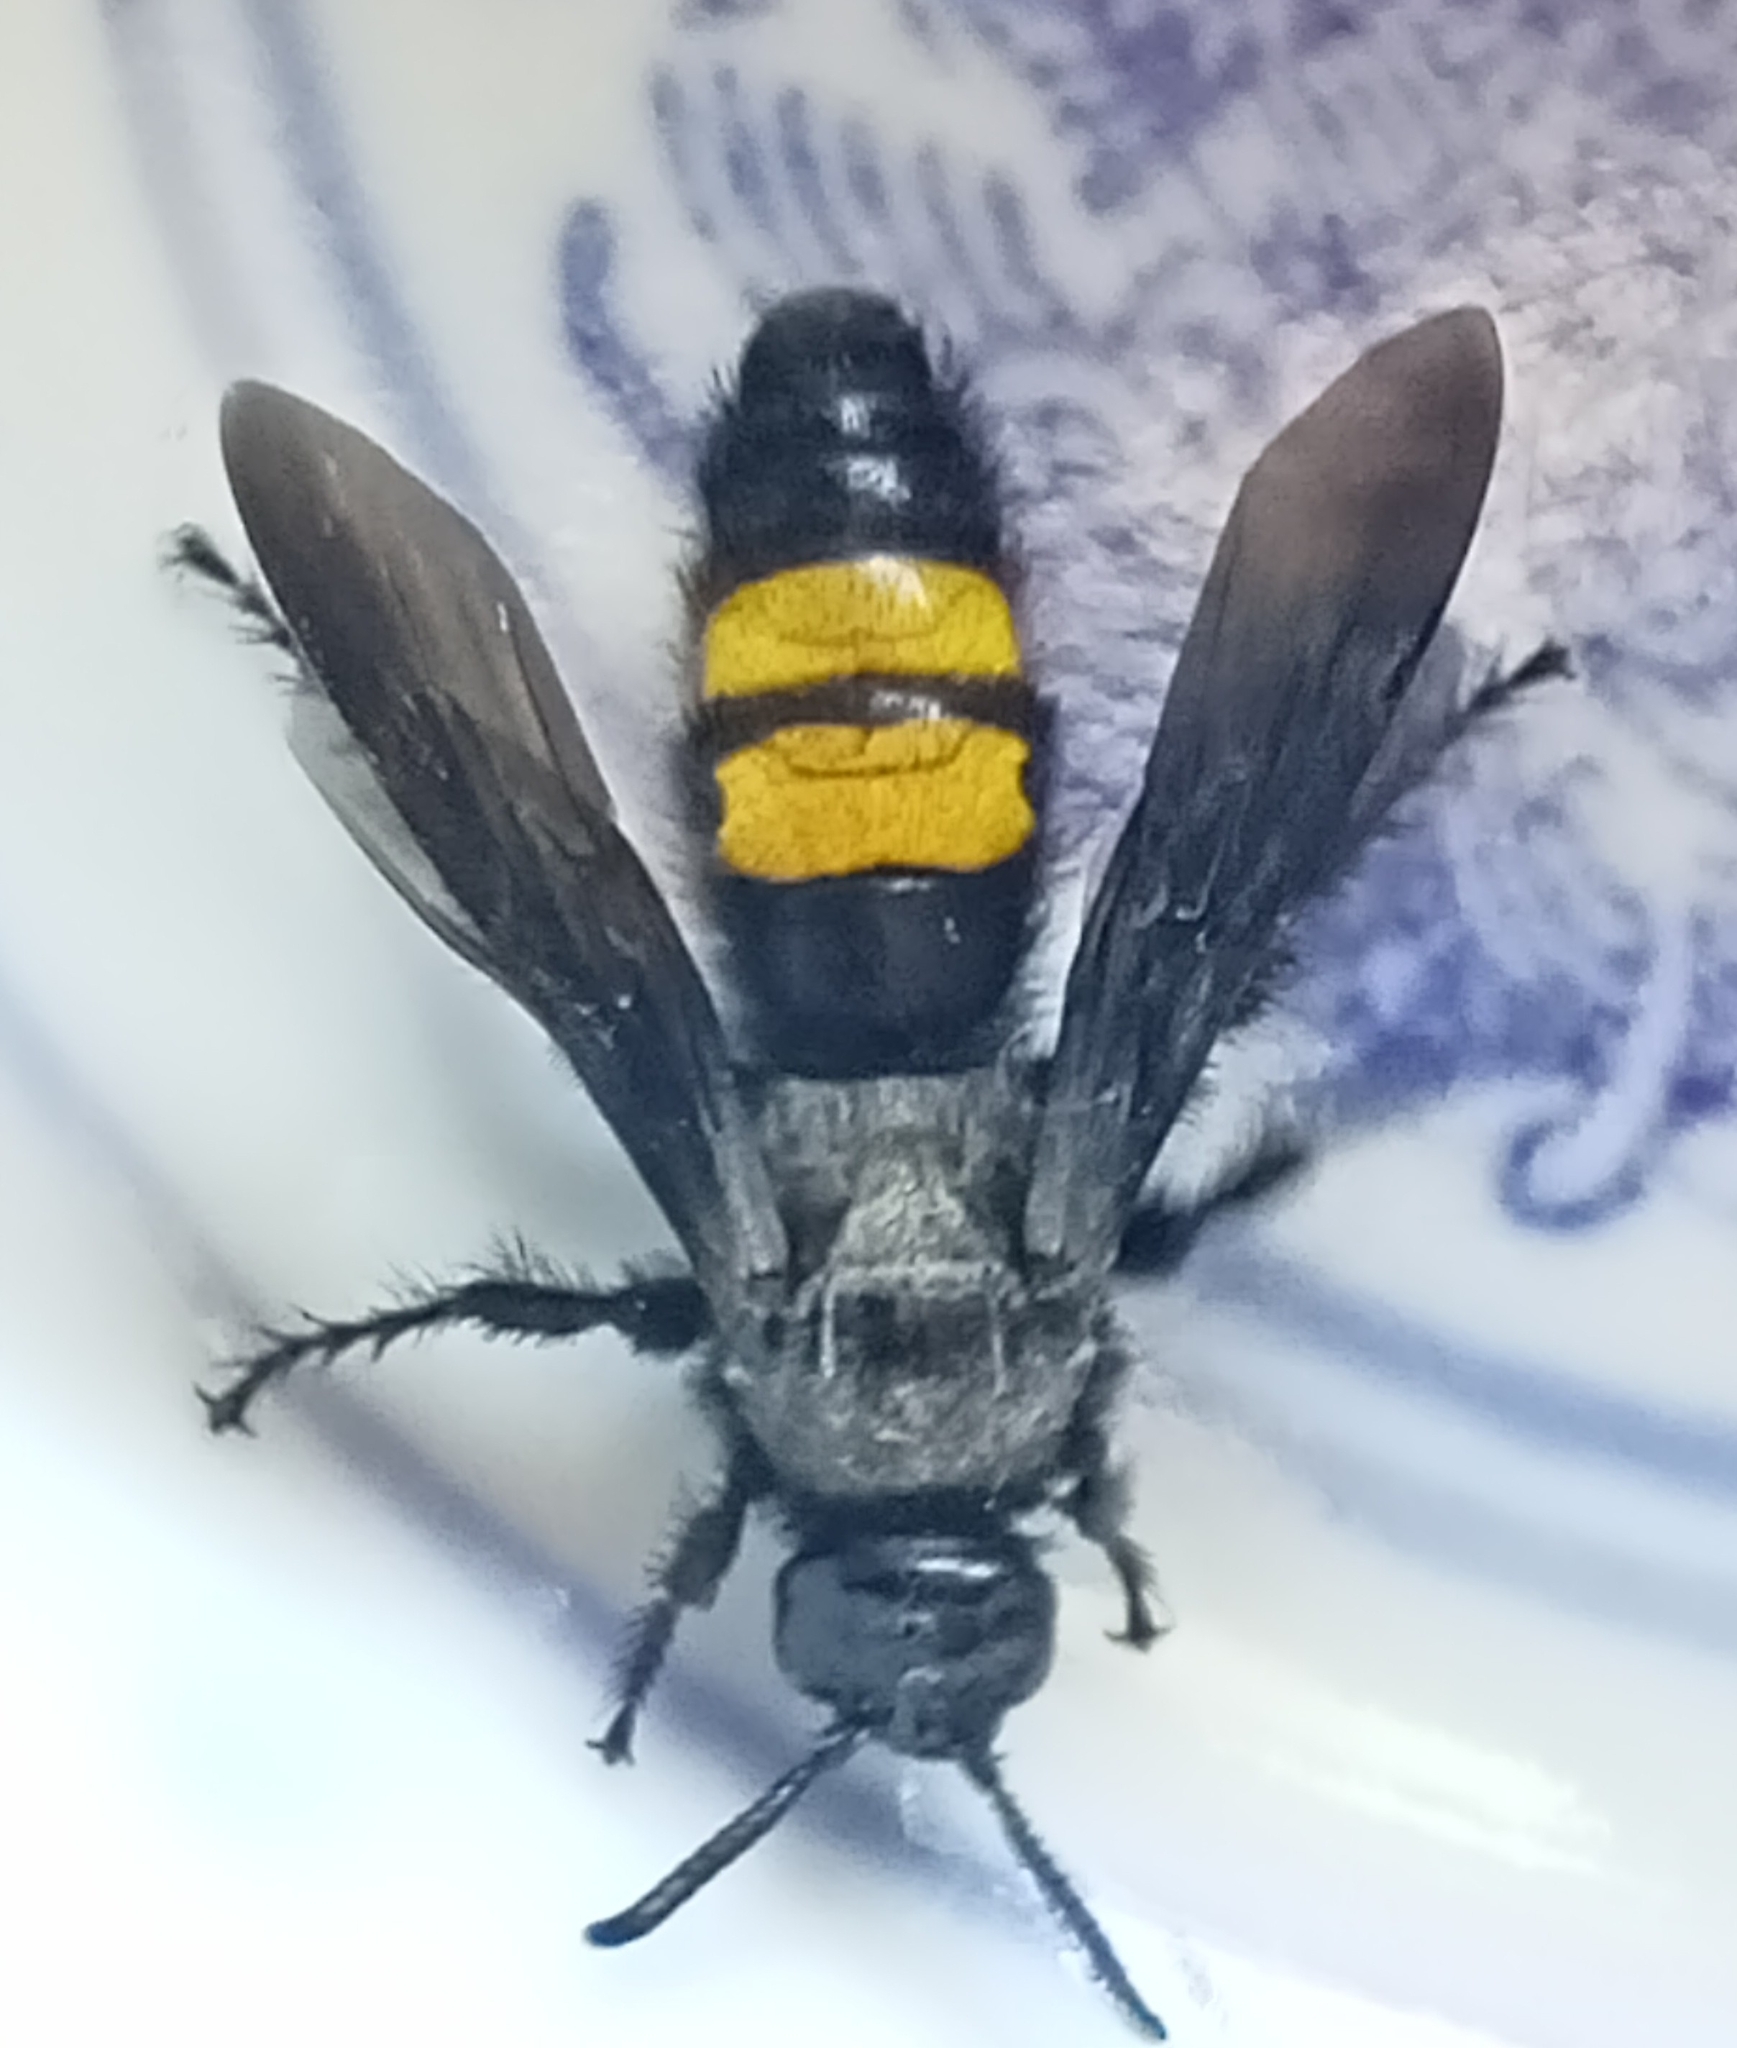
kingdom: Animalia
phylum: Arthropoda
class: Insecta
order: Hymenoptera
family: Scoliidae
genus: Scolia
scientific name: Scolia hirta
